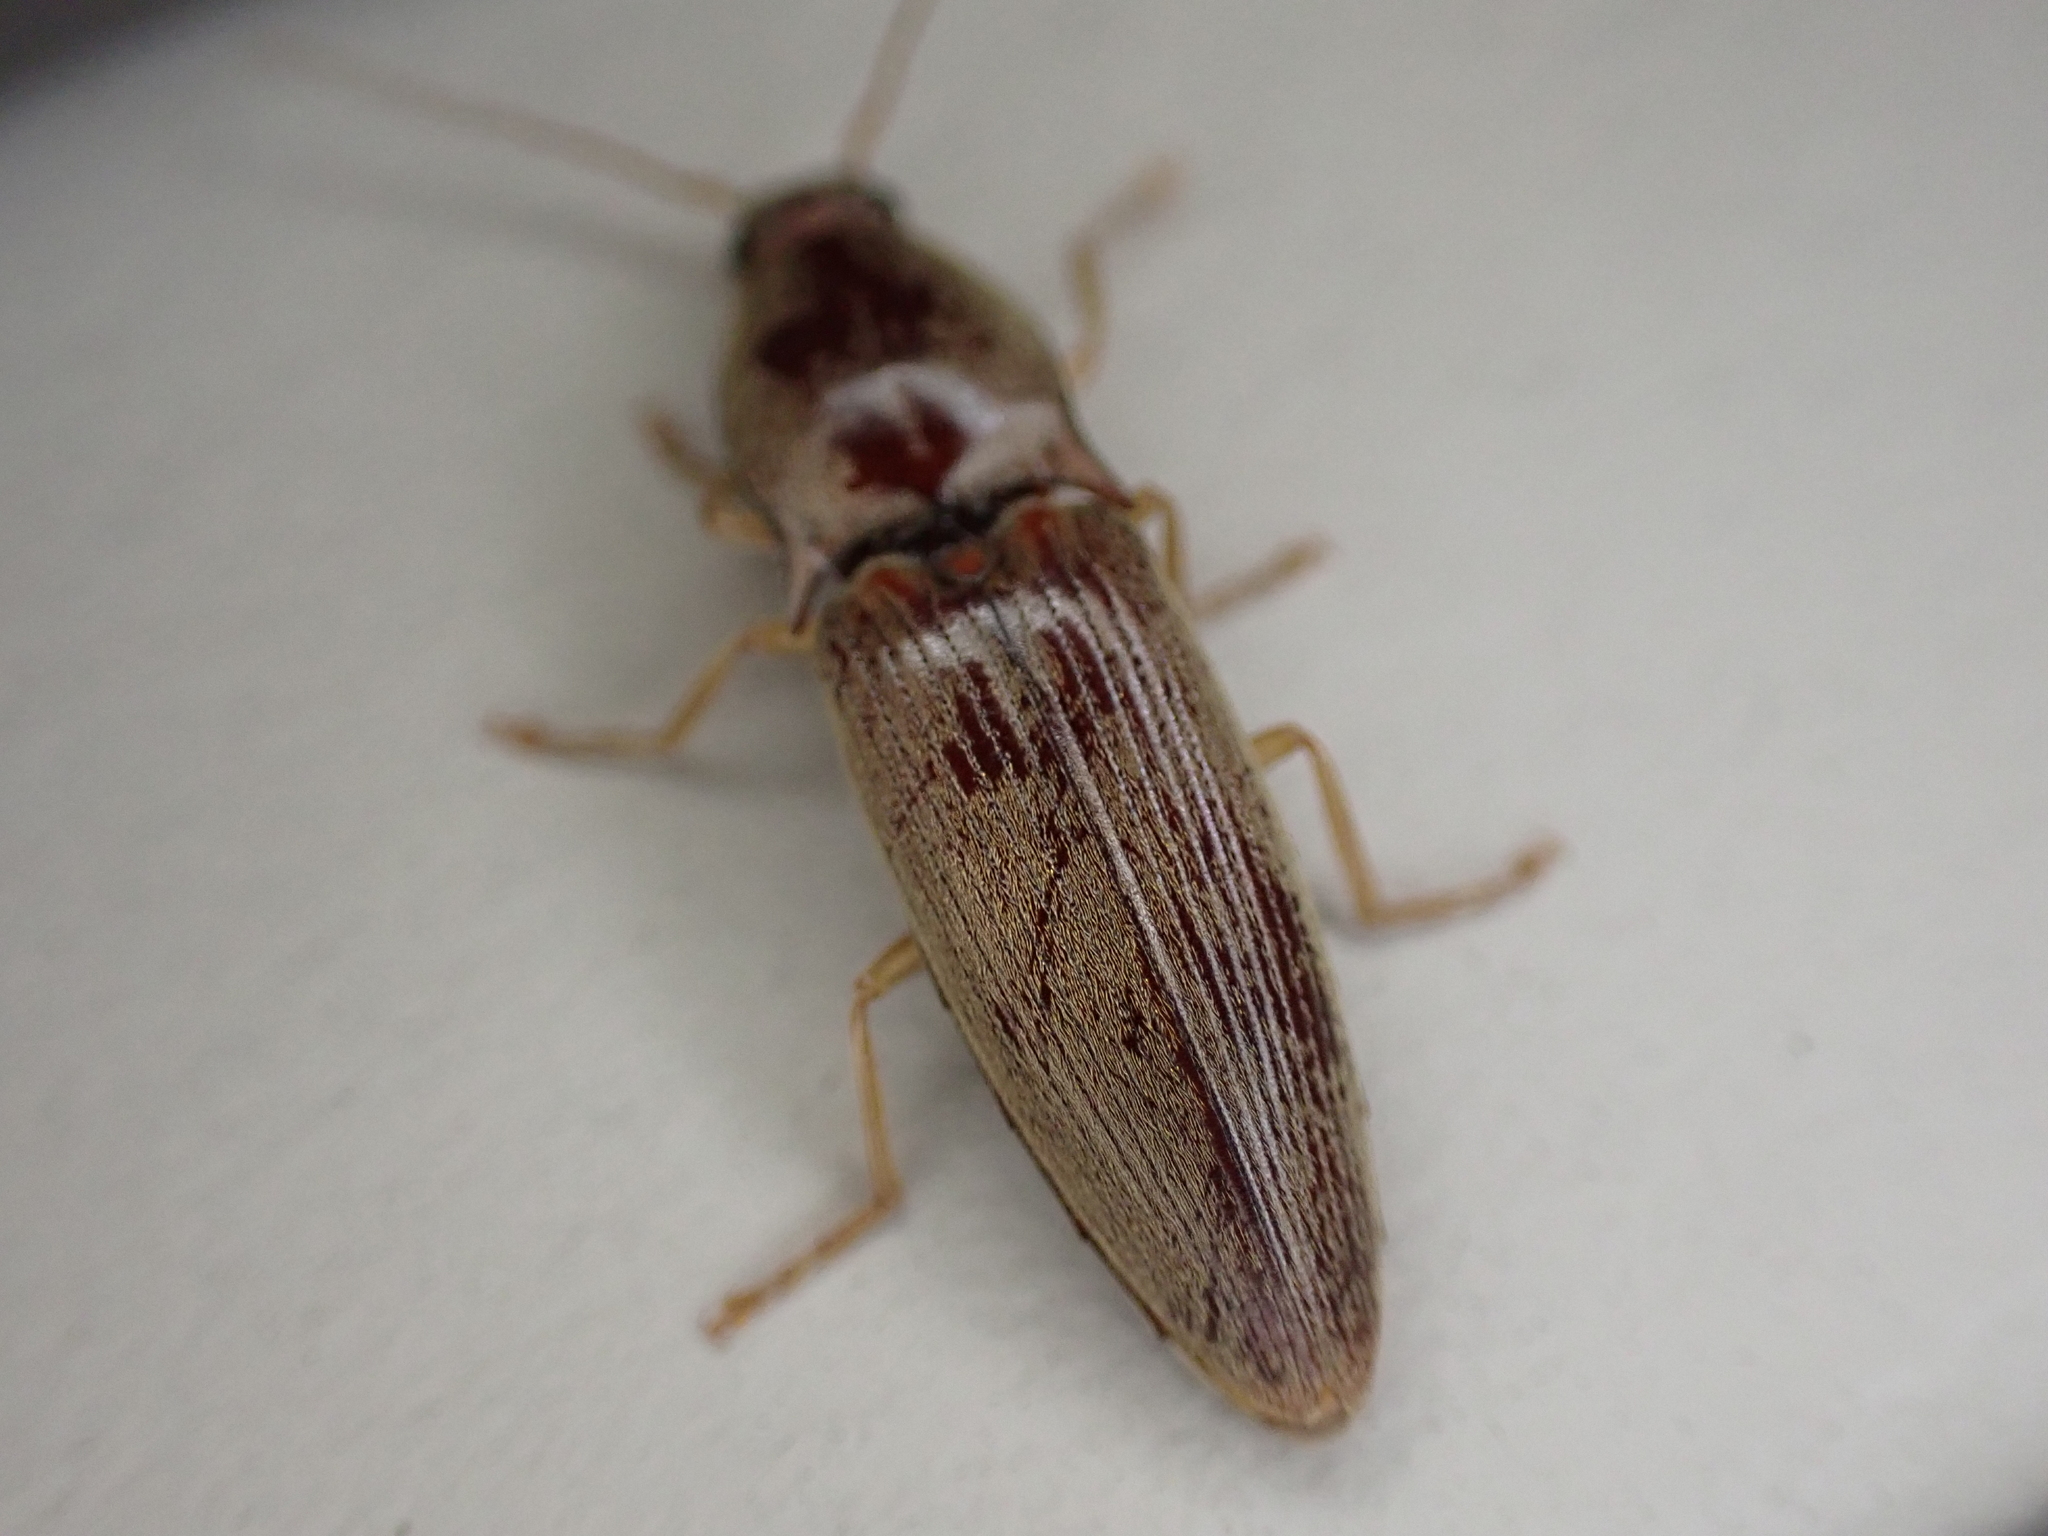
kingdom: Animalia
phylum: Arthropoda
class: Insecta
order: Coleoptera
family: Elateridae
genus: Monocrepidius
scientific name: Monocrepidius lividus
